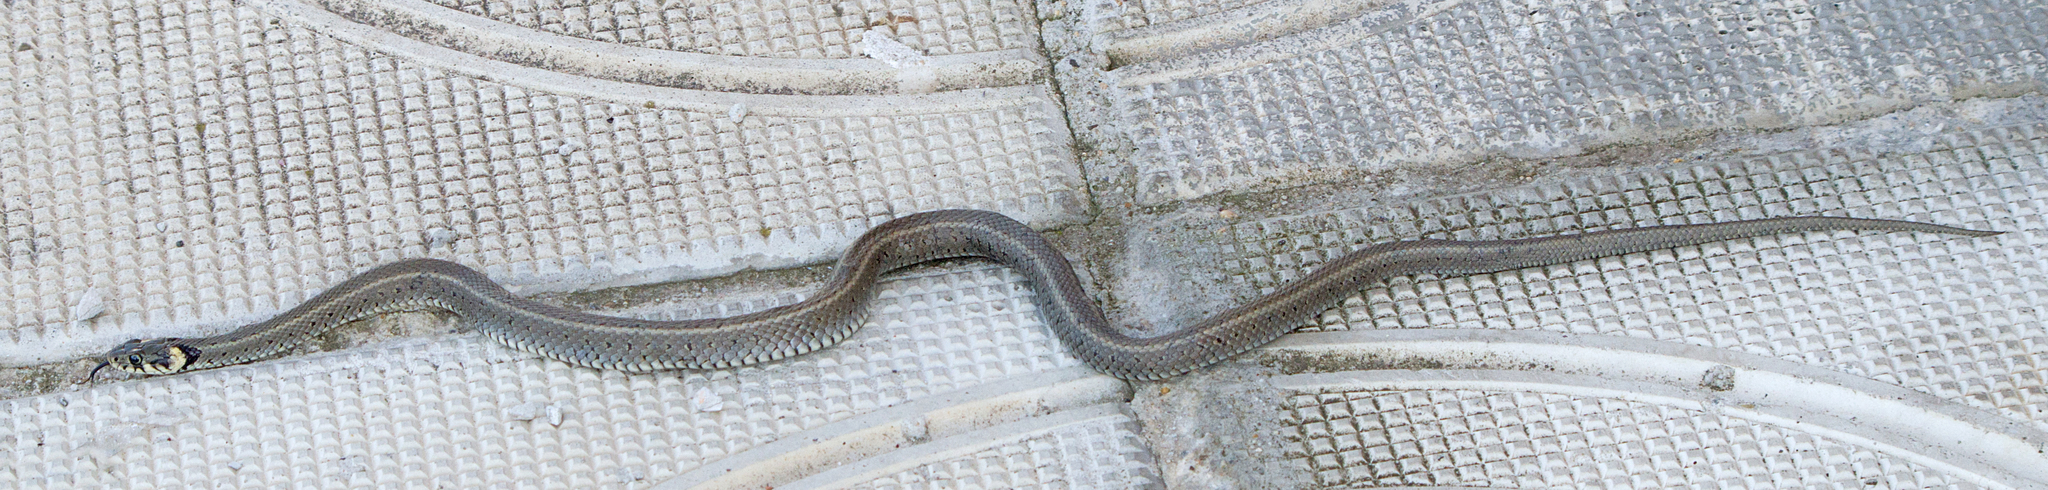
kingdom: Animalia
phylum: Chordata
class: Squamata
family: Colubridae
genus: Natrix
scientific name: Natrix natrix
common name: Grass snake
